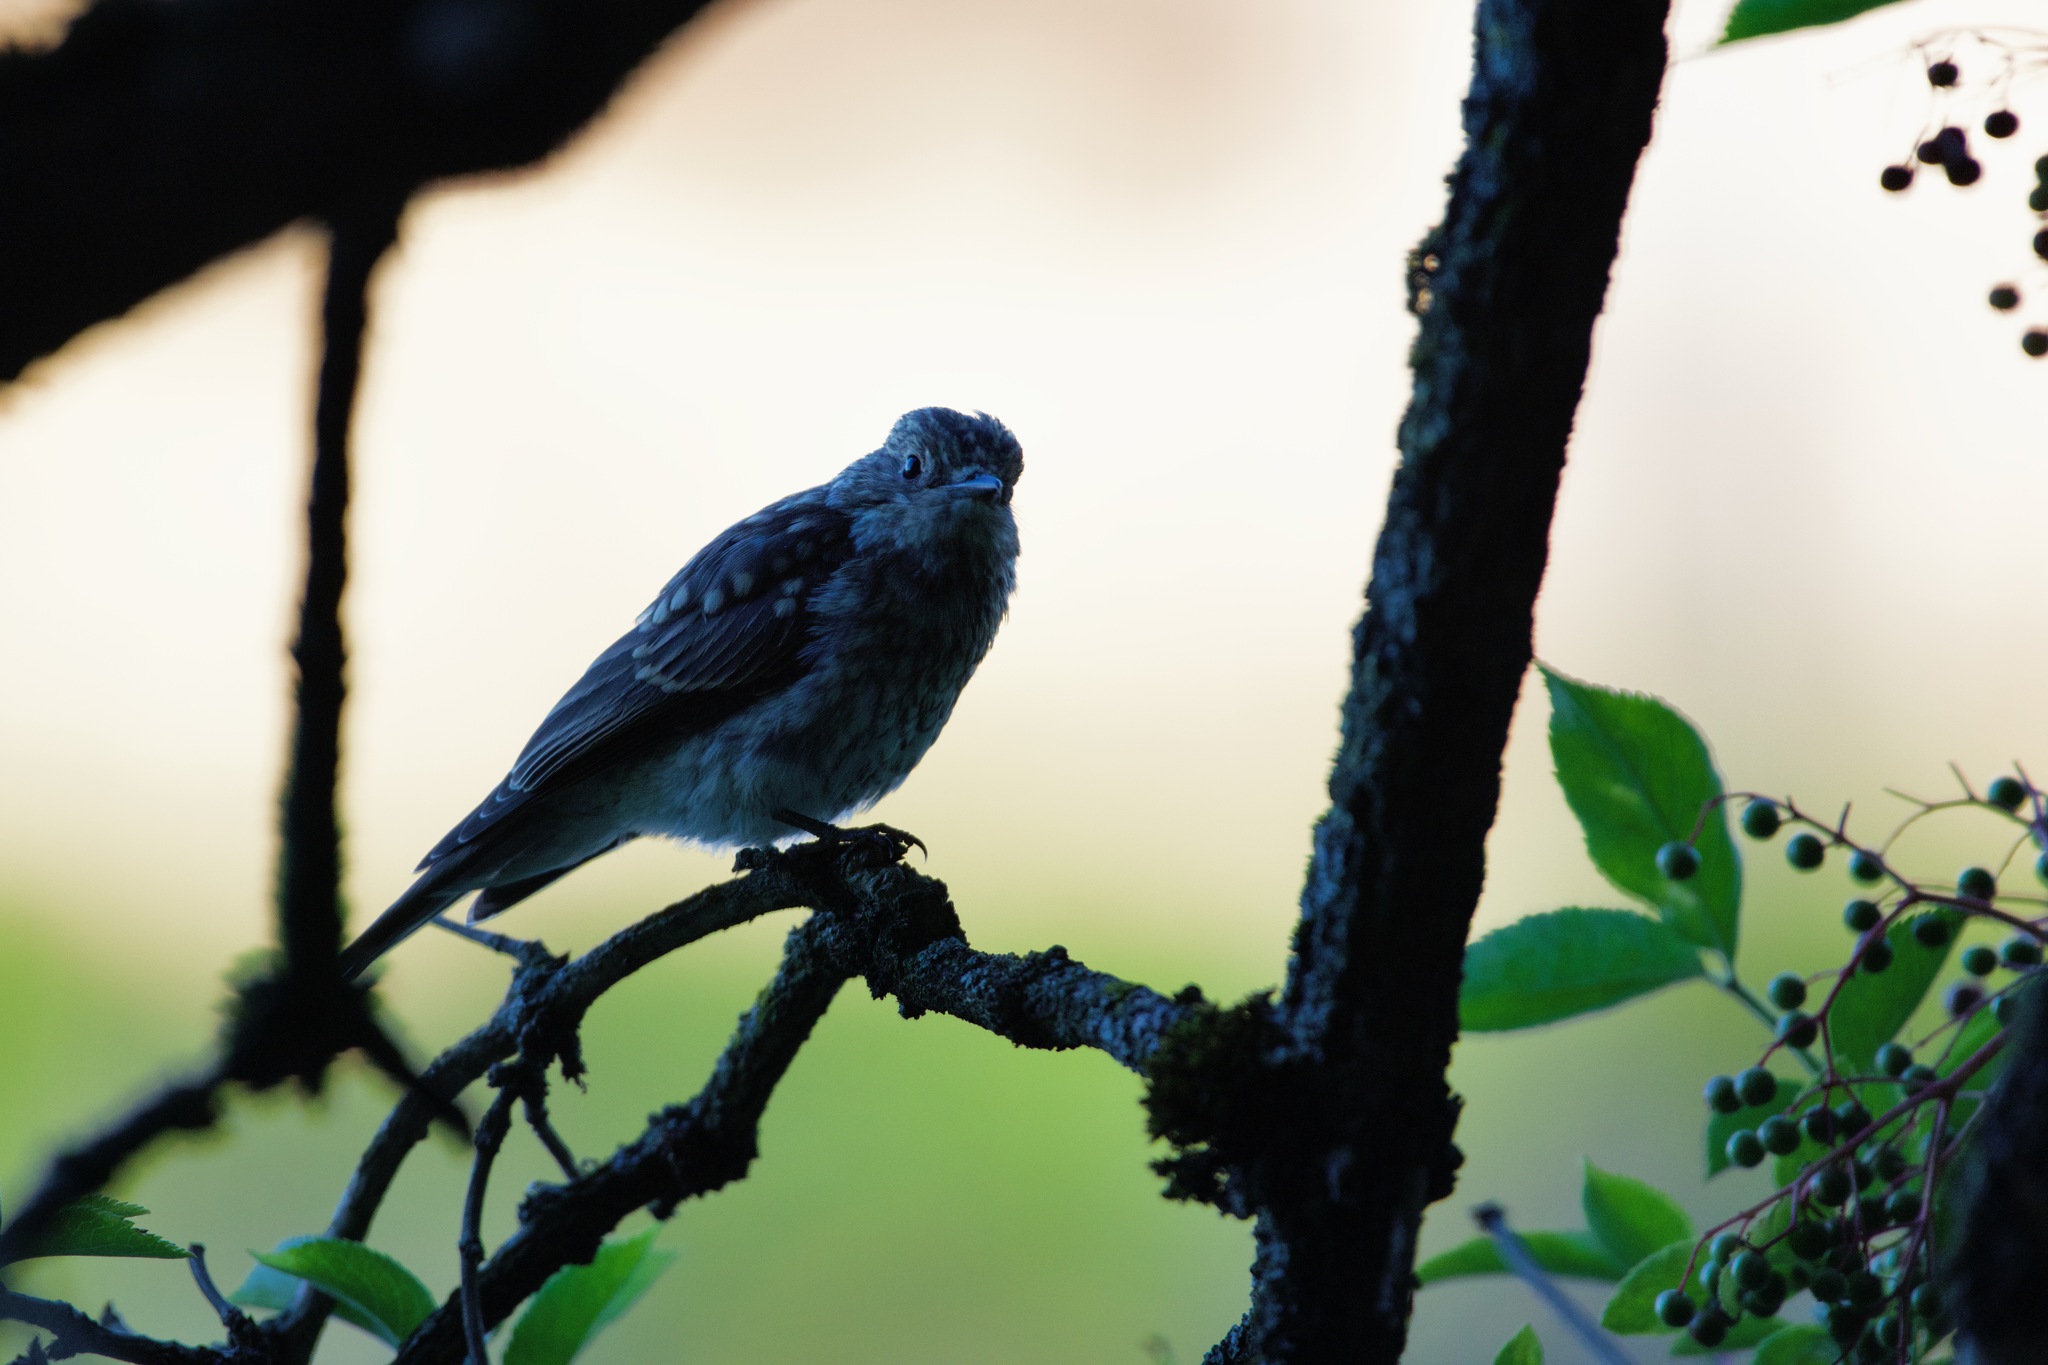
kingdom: Animalia
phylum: Chordata
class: Aves
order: Passeriformes
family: Muscicapidae
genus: Muscicapa
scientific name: Muscicapa striata
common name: Spotted flycatcher
